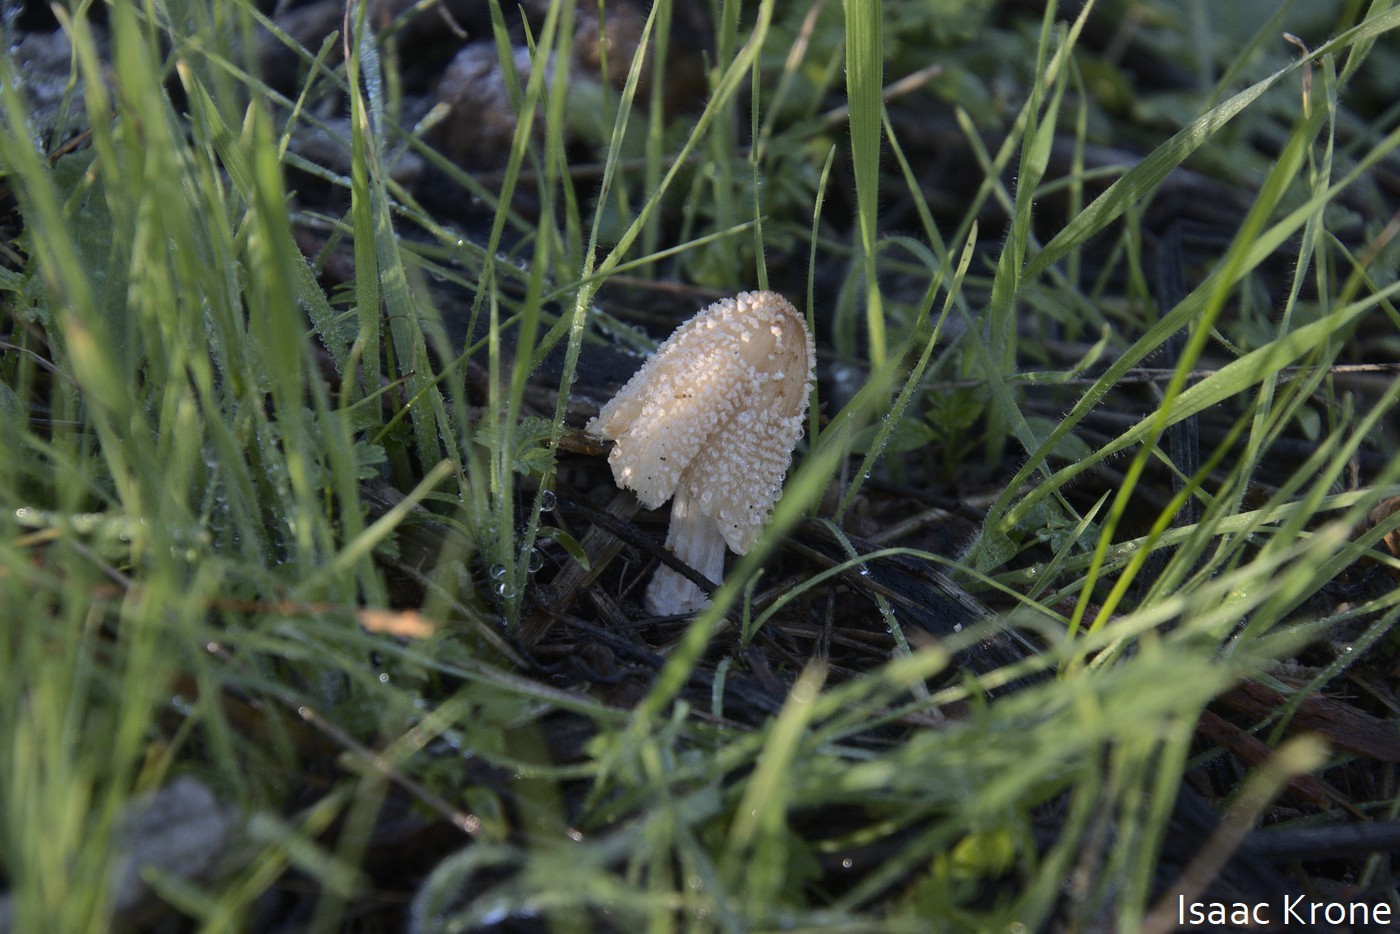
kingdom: Fungi
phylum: Basidiomycota
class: Agaricomycetes
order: Agaricales
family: Psathyrellaceae
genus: Coprinellus
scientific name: Coprinellus flocculosus
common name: Flocculose inkcap
